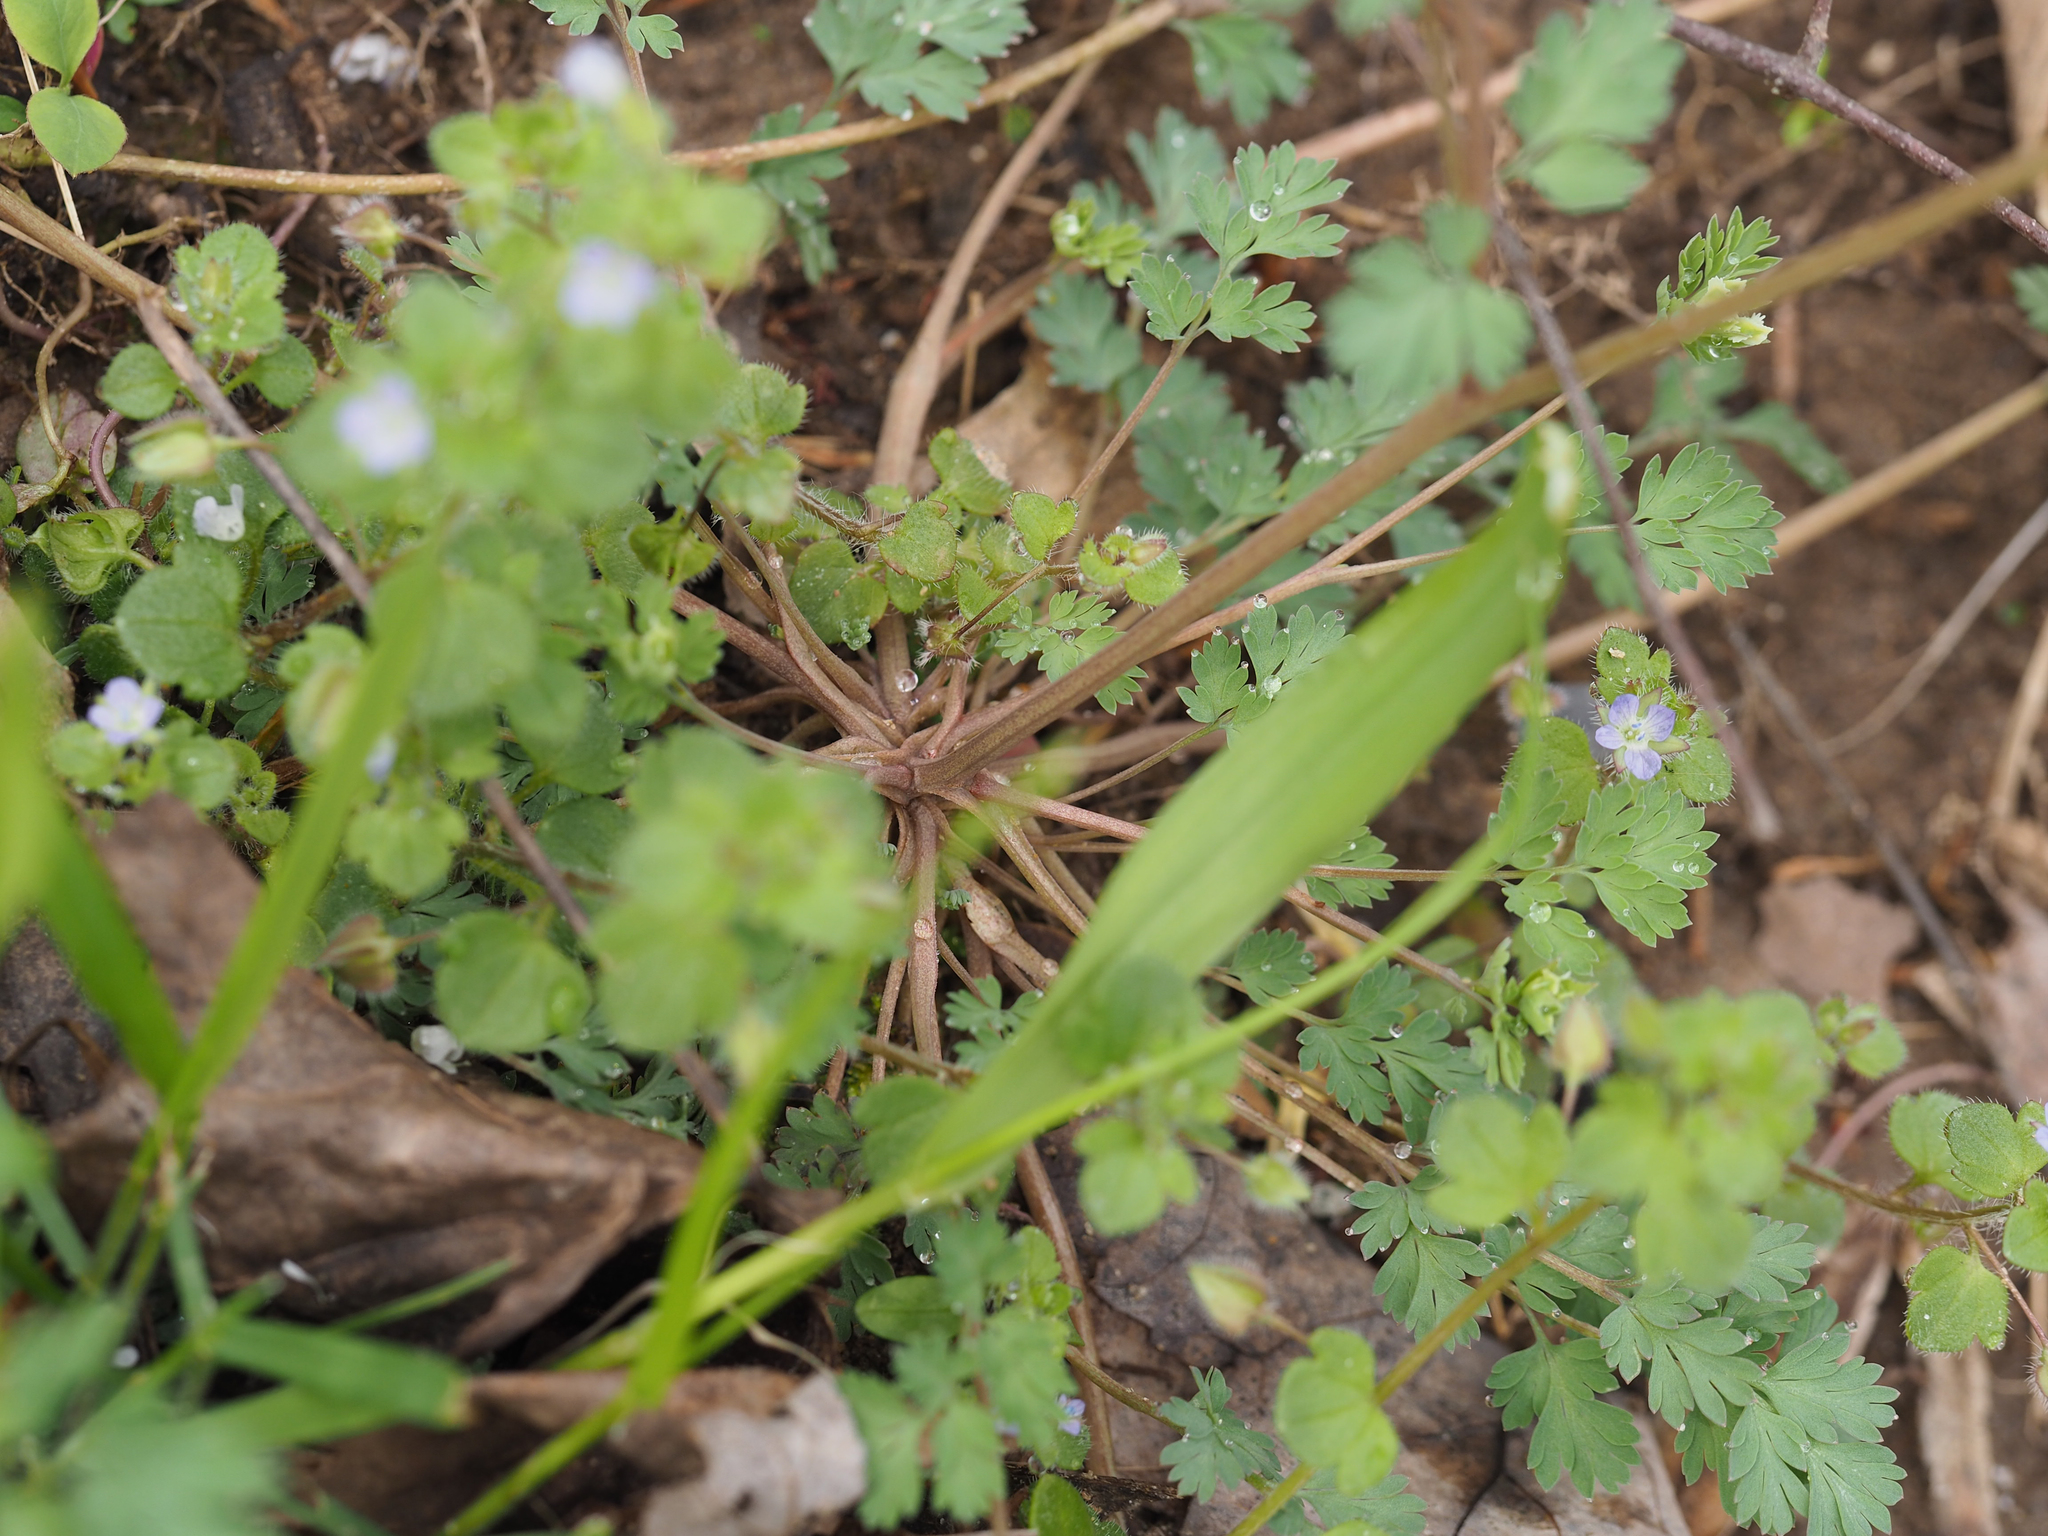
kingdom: Plantae
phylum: Tracheophyta
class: Magnoliopsida
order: Ranunculales
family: Papaveraceae
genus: Corydalis
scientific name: Corydalis flavula
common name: Yellow corydalis
